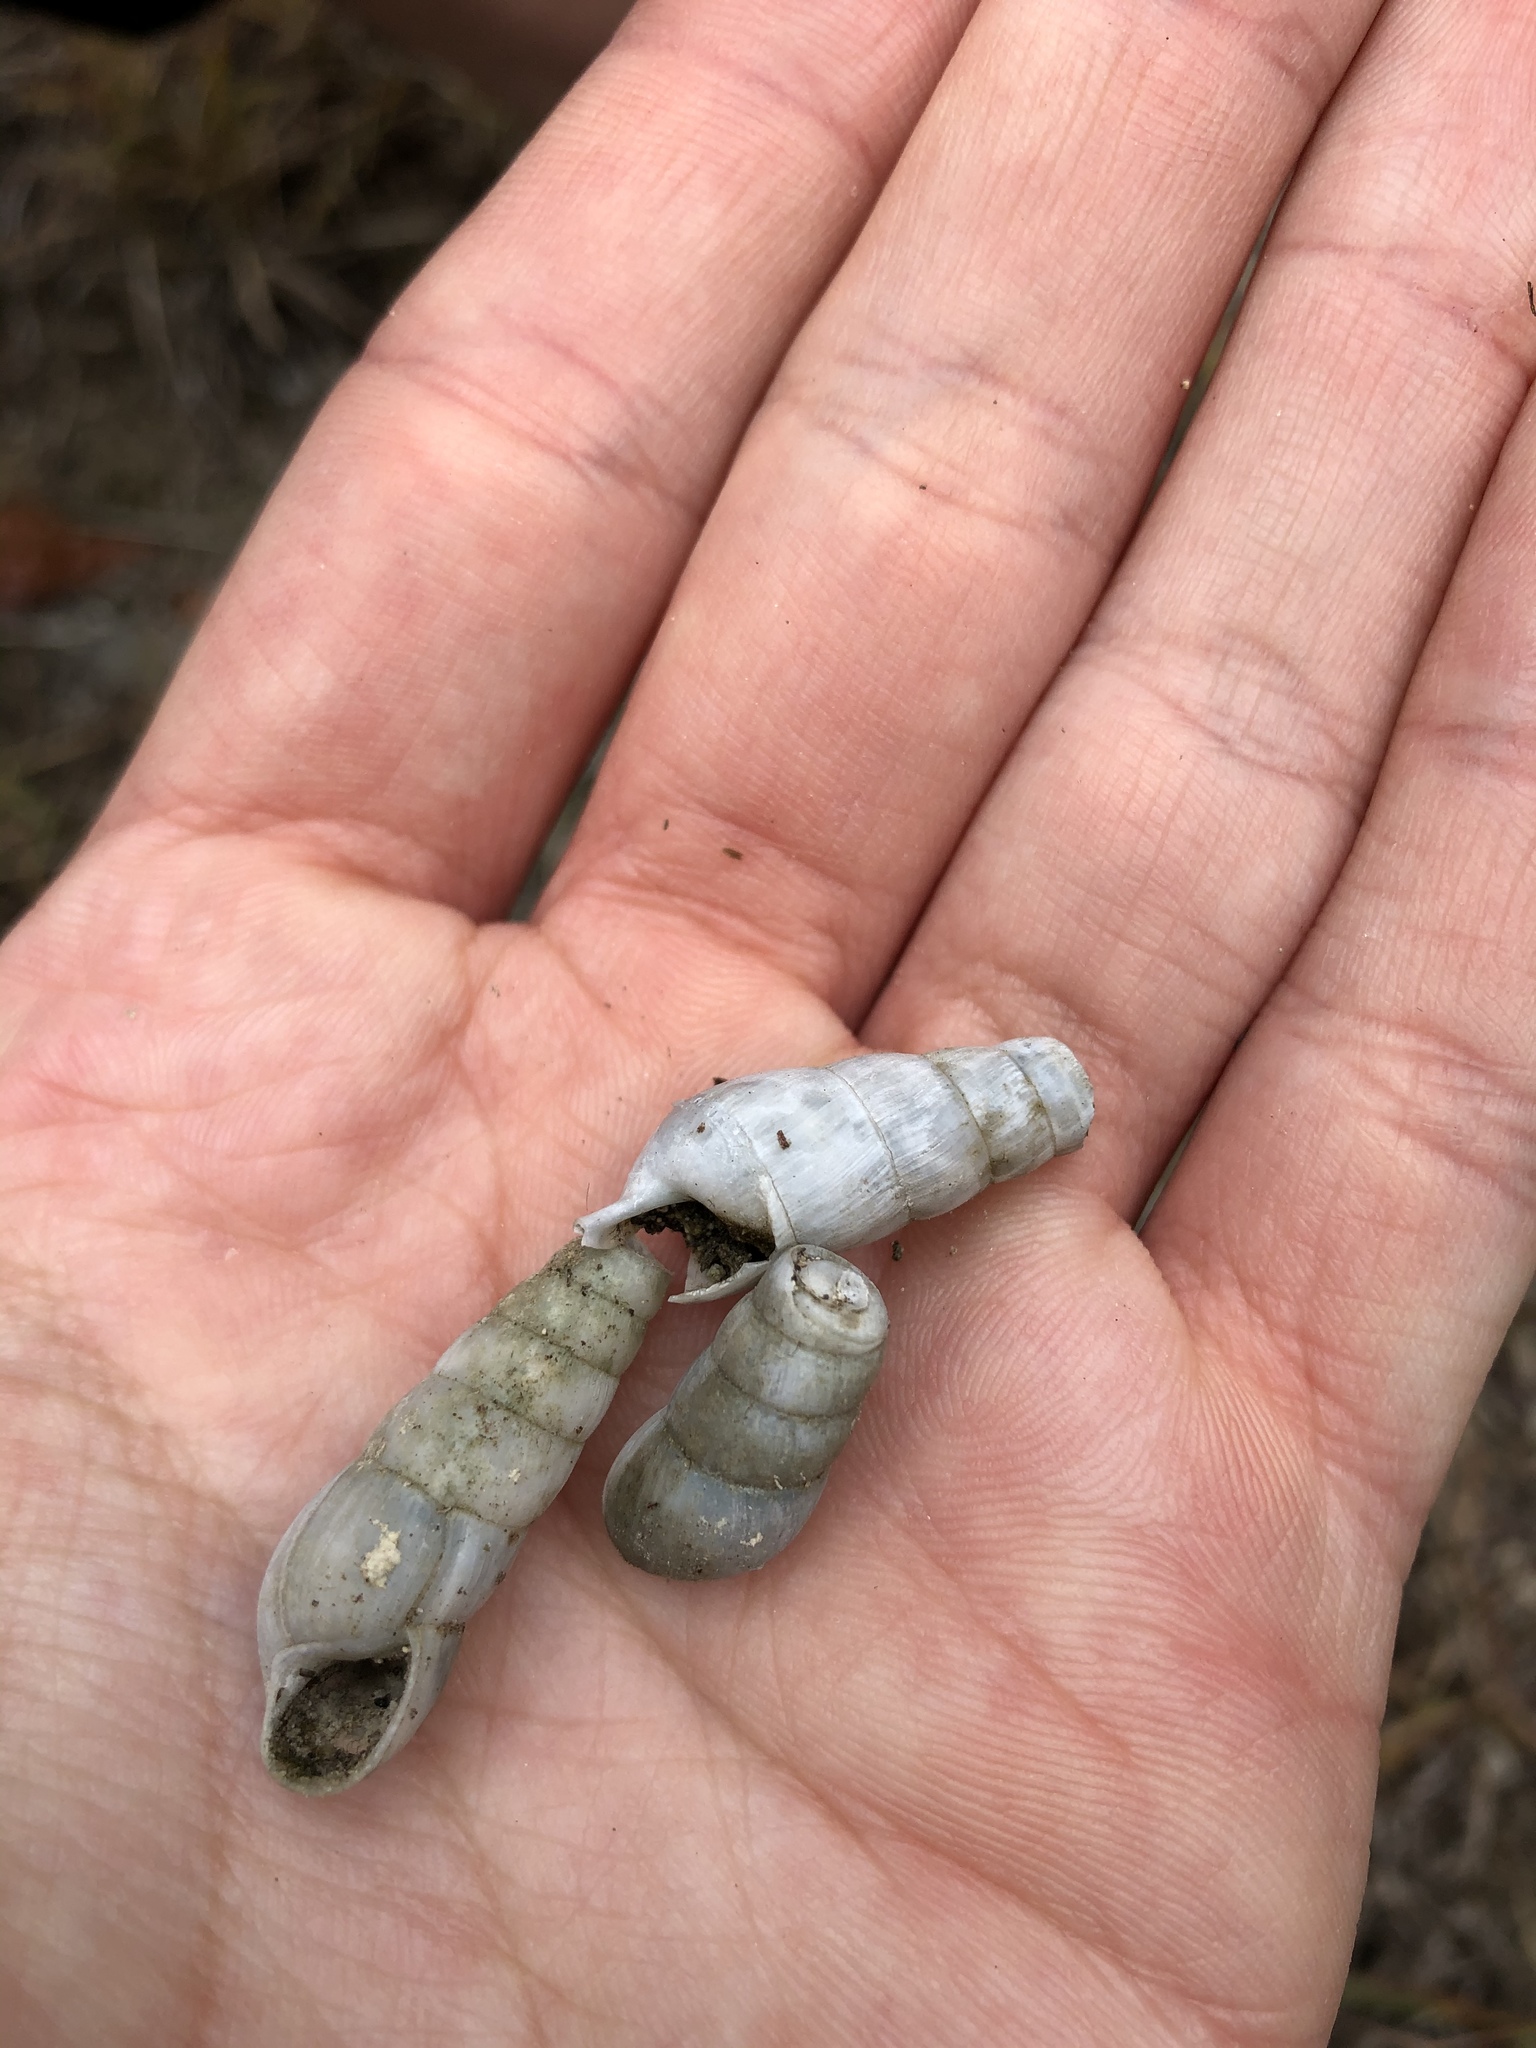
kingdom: Animalia
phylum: Mollusca
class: Gastropoda
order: Stylommatophora
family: Achatinidae
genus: Rumina
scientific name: Rumina decollata
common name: Decollate snail
